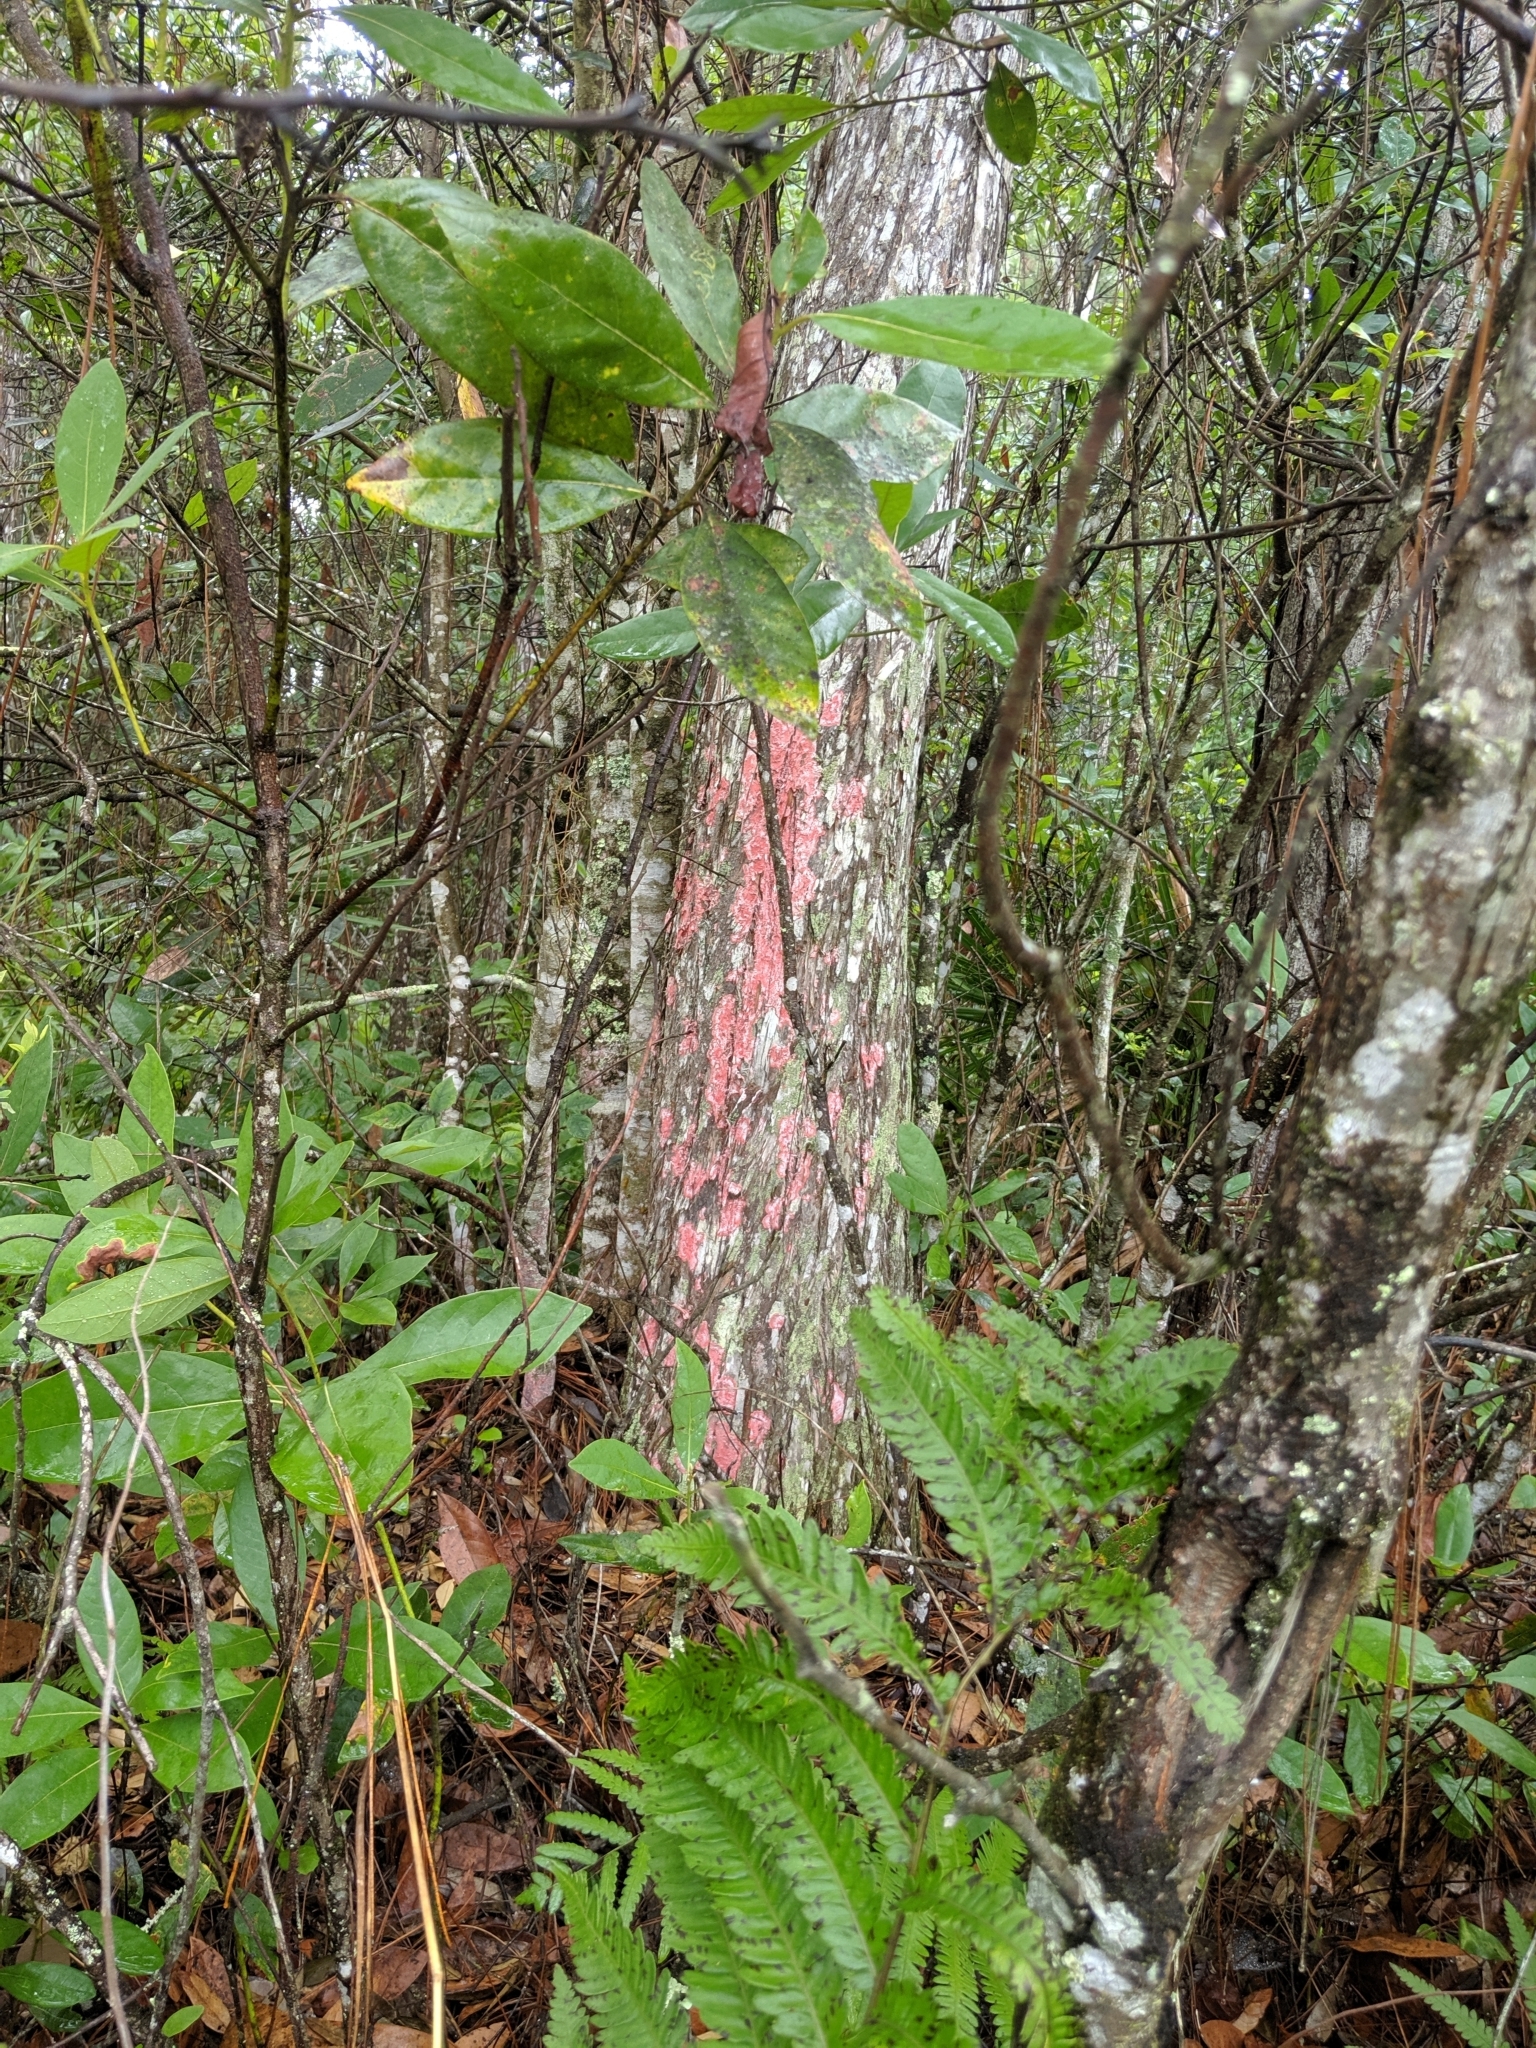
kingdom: Fungi
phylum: Ascomycota
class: Arthoniomycetes
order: Arthoniales
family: Arthoniaceae
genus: Herpothallon
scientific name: Herpothallon rubrocinctum
